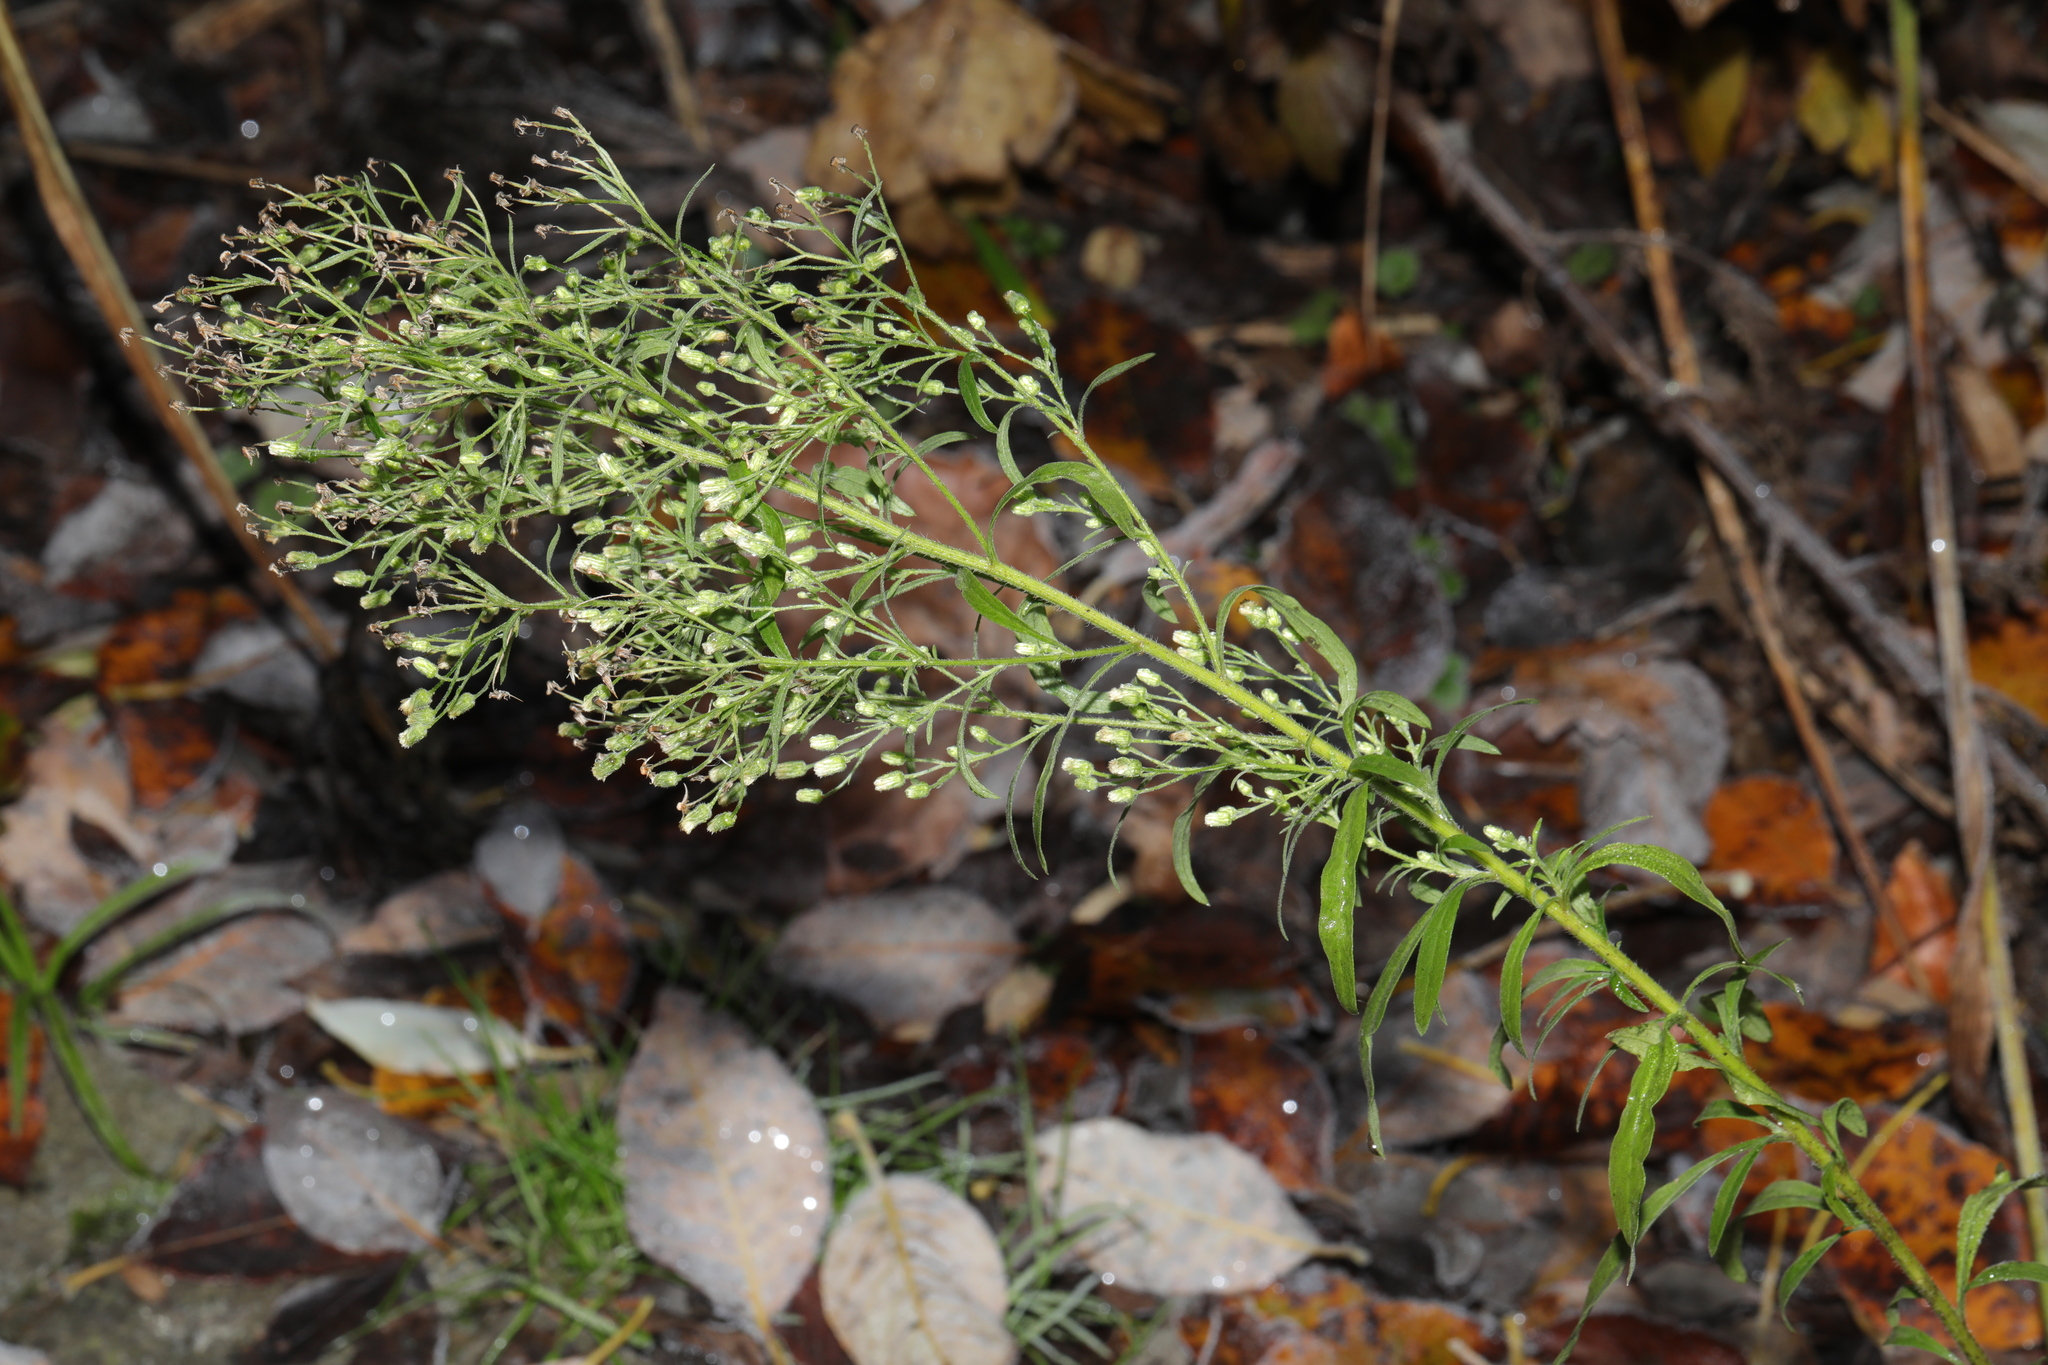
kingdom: Plantae
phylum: Tracheophyta
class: Magnoliopsida
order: Asterales
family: Asteraceae
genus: Erigeron
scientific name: Erigeron canadensis
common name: Canadian fleabane
